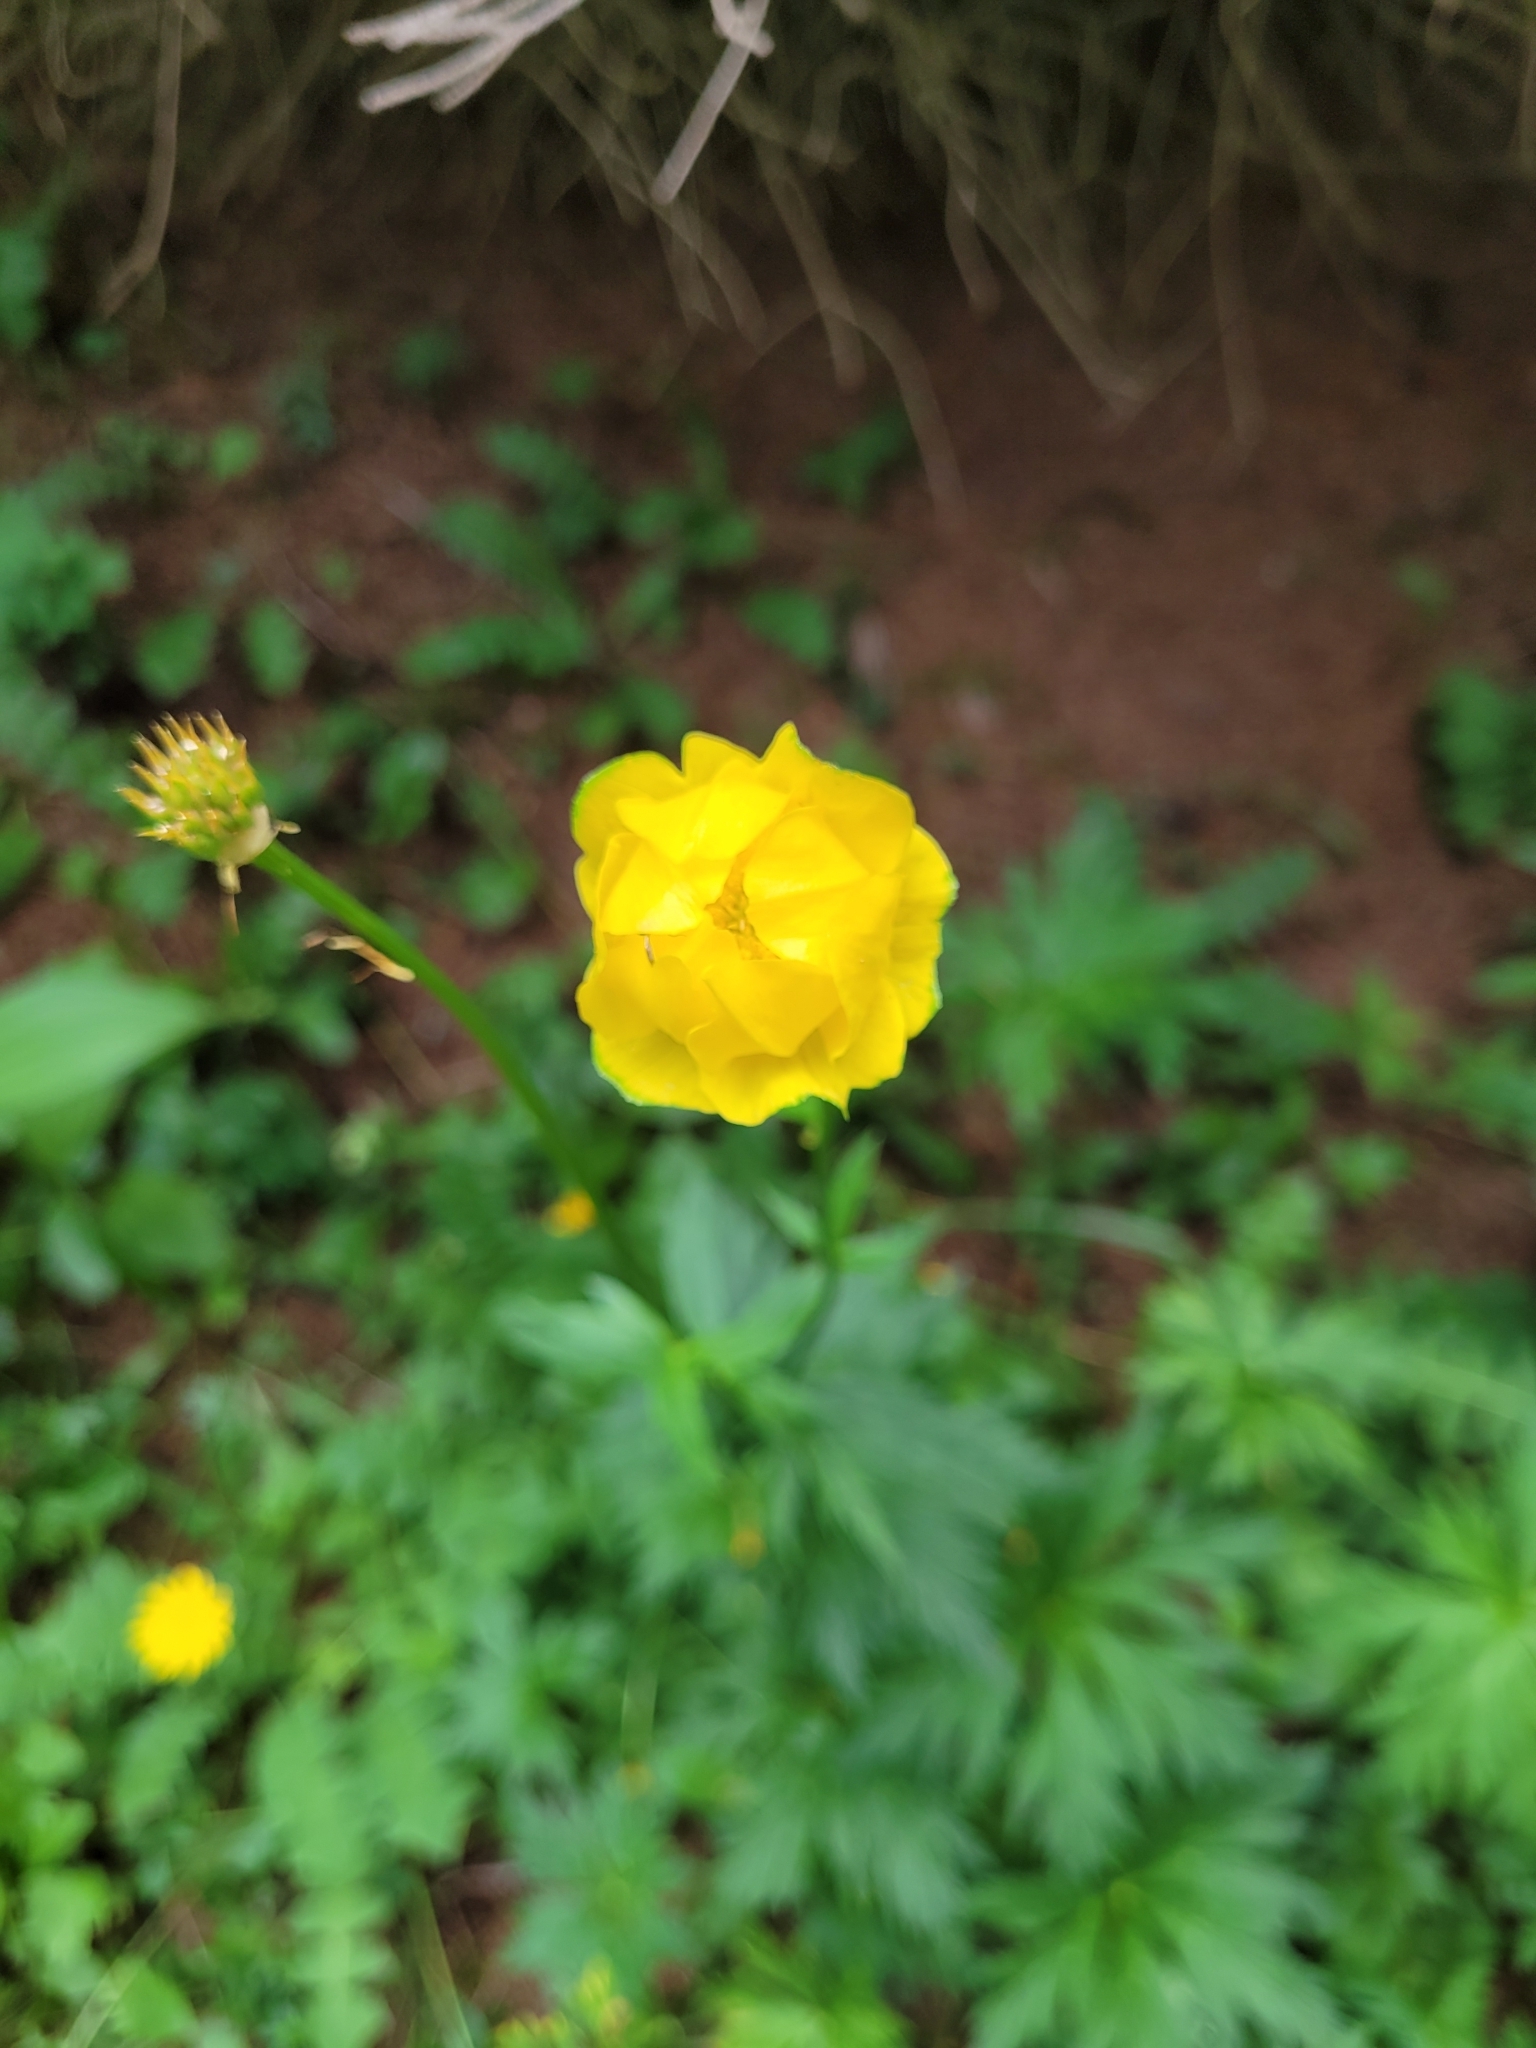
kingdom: Plantae
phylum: Tracheophyta
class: Magnoliopsida
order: Ranunculales
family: Ranunculaceae
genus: Trollius
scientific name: Trollius europaeus
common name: European globeflower
